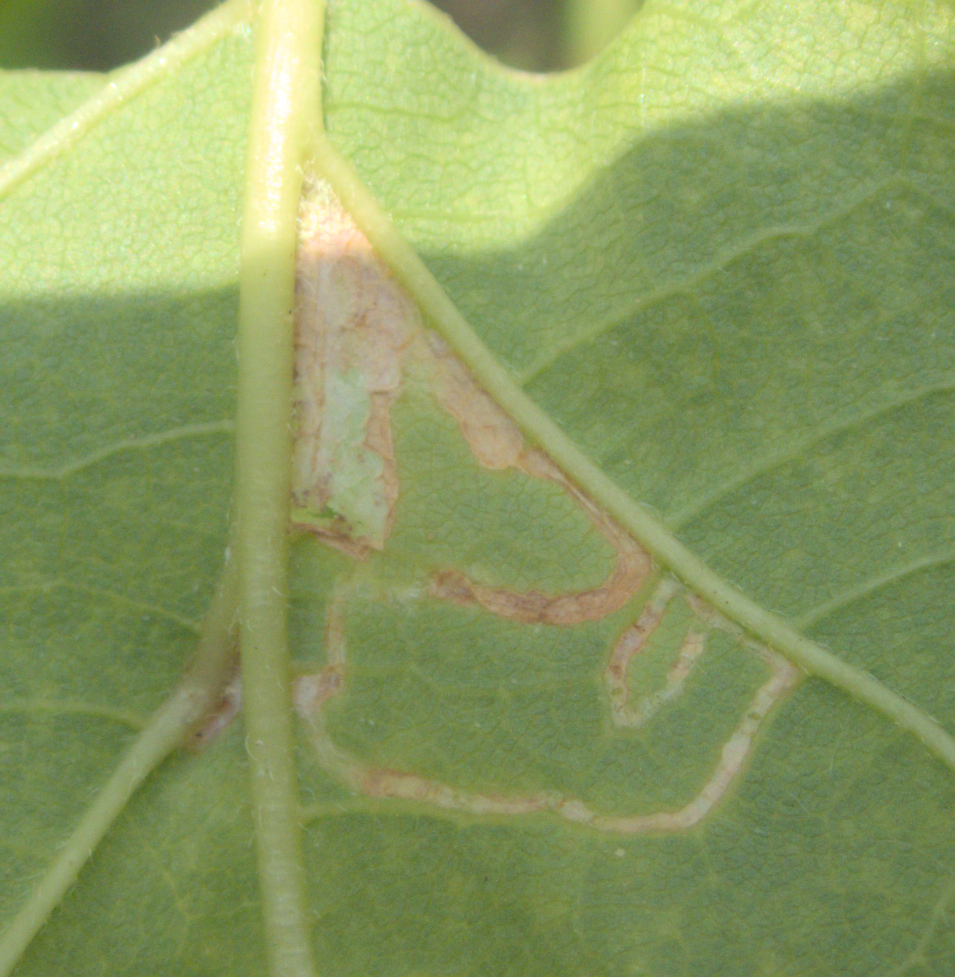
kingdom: Animalia
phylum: Arthropoda
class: Insecta
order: Lepidoptera
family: Gracillariidae
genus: Caloptilia
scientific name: Caloptilia negundella
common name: Leafminer
